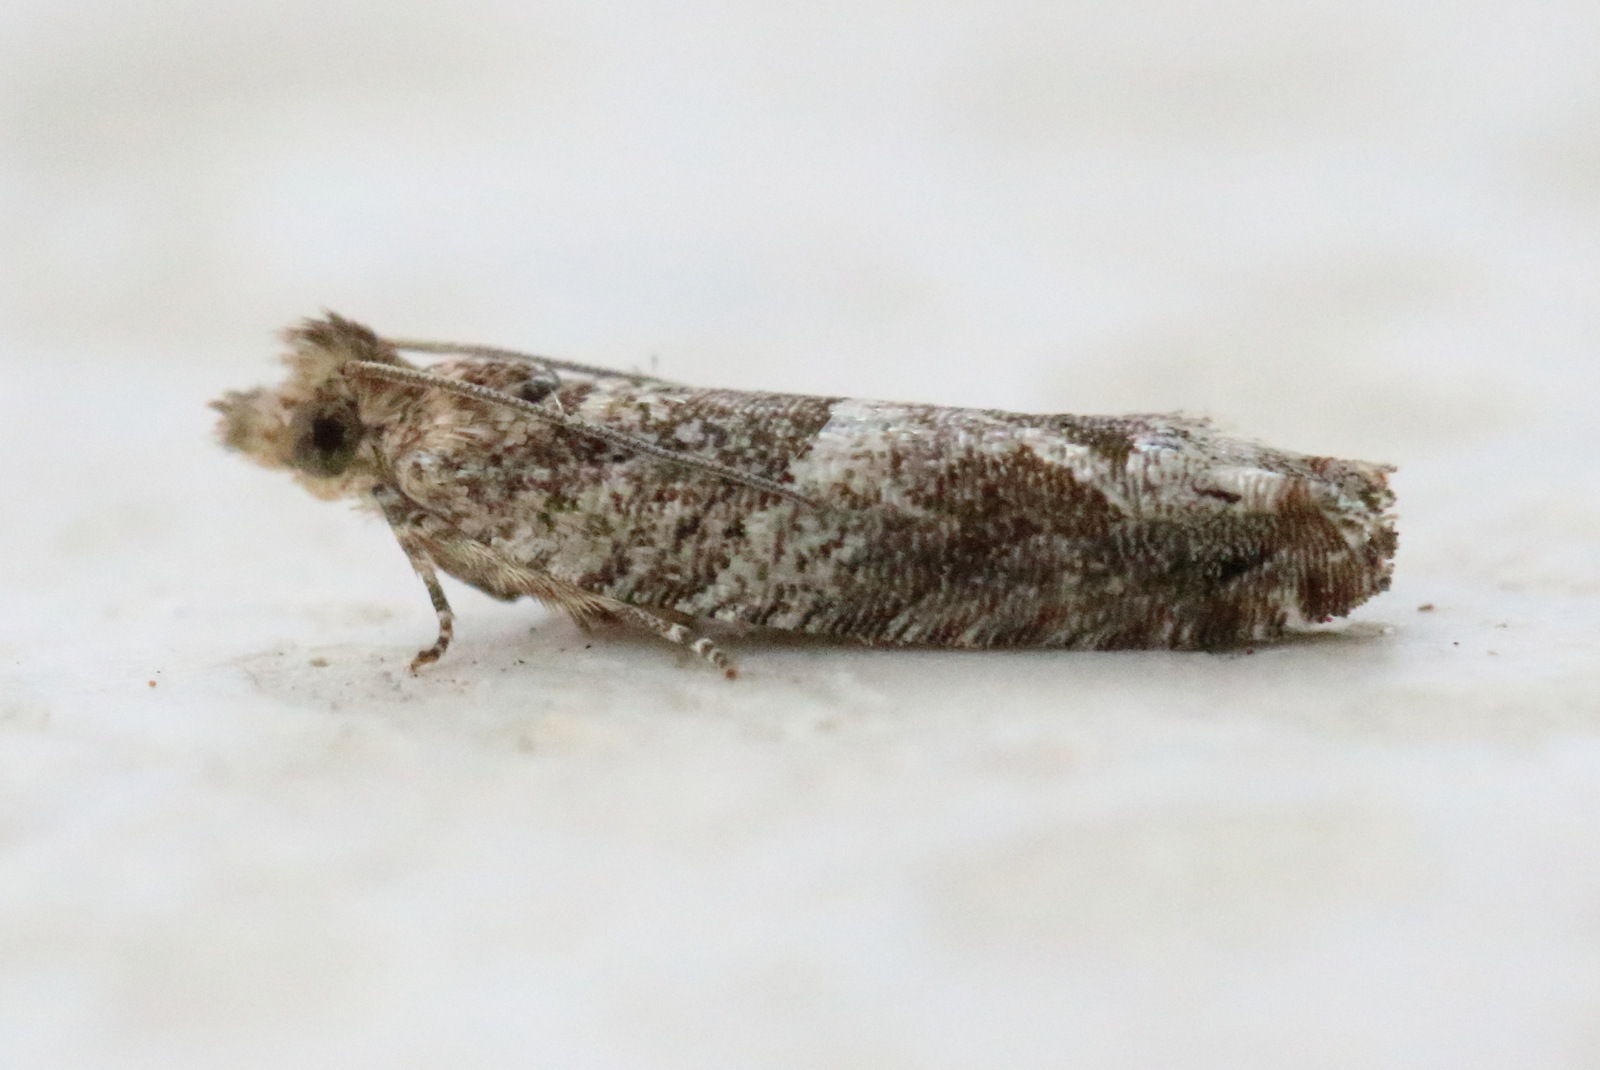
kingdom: Animalia
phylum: Arthropoda
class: Insecta
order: Lepidoptera
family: Tortricidae
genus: Crocidosema
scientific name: Crocidosema plebejana
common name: Southern bell
